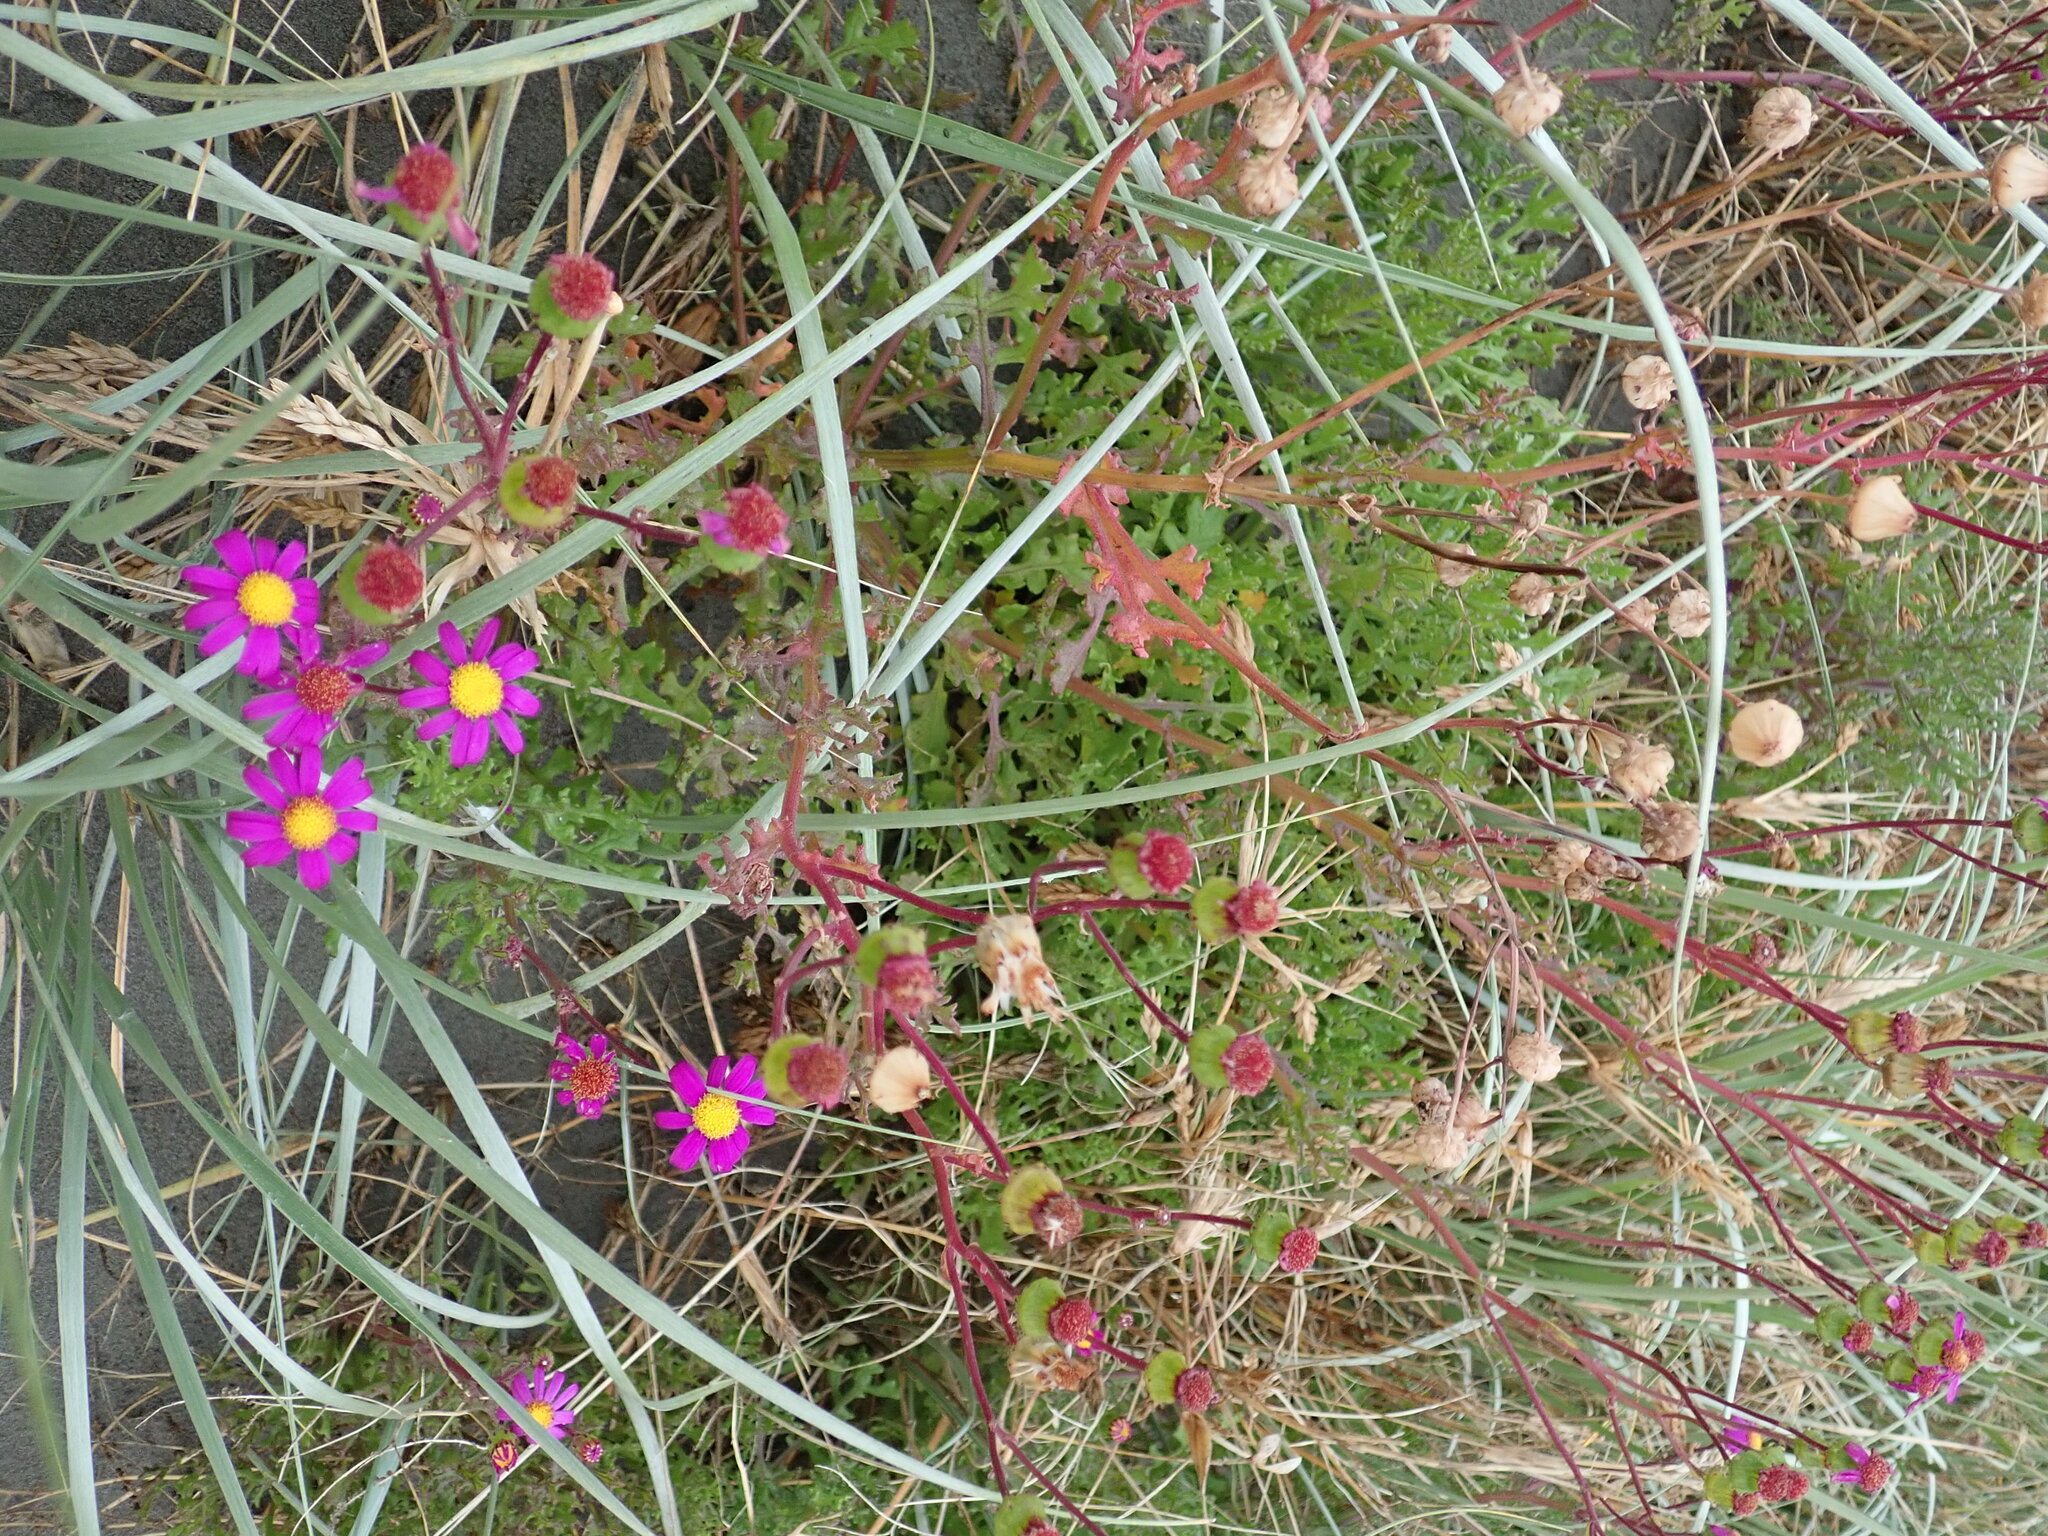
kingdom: Plantae
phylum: Tracheophyta
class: Magnoliopsida
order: Asterales
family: Asteraceae
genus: Senecio
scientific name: Senecio elegans
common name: Purple groundsel
